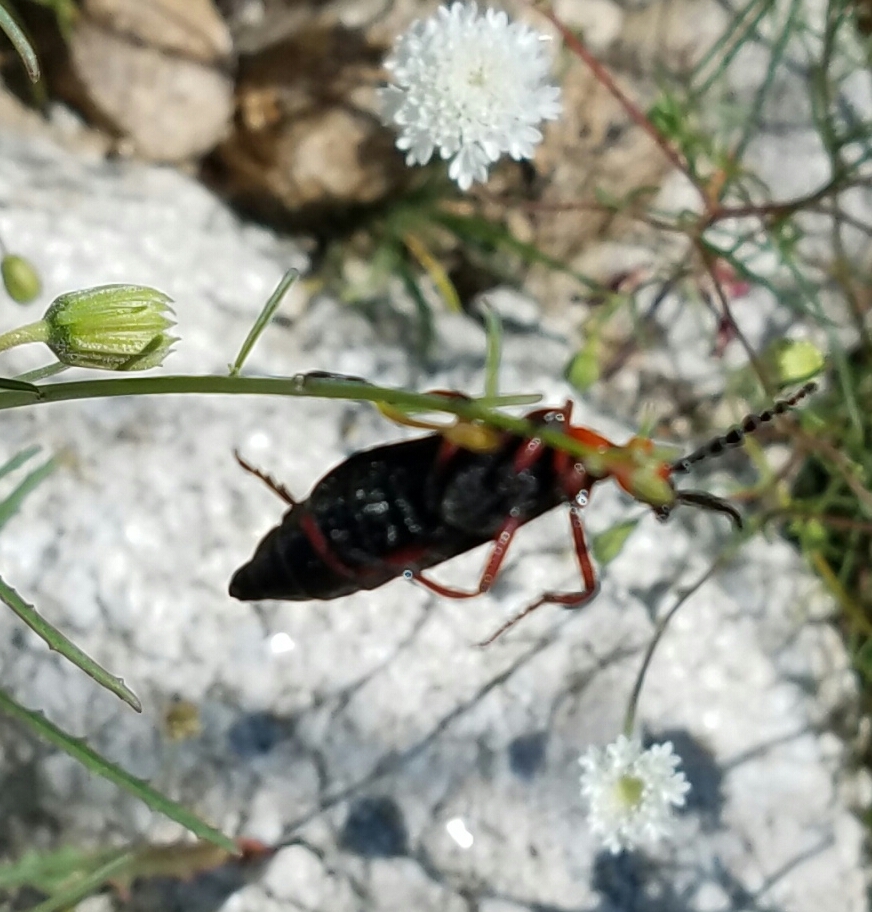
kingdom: Animalia
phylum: Arthropoda
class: Insecta
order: Coleoptera
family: Meloidae
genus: Lytta
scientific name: Lytta magister
